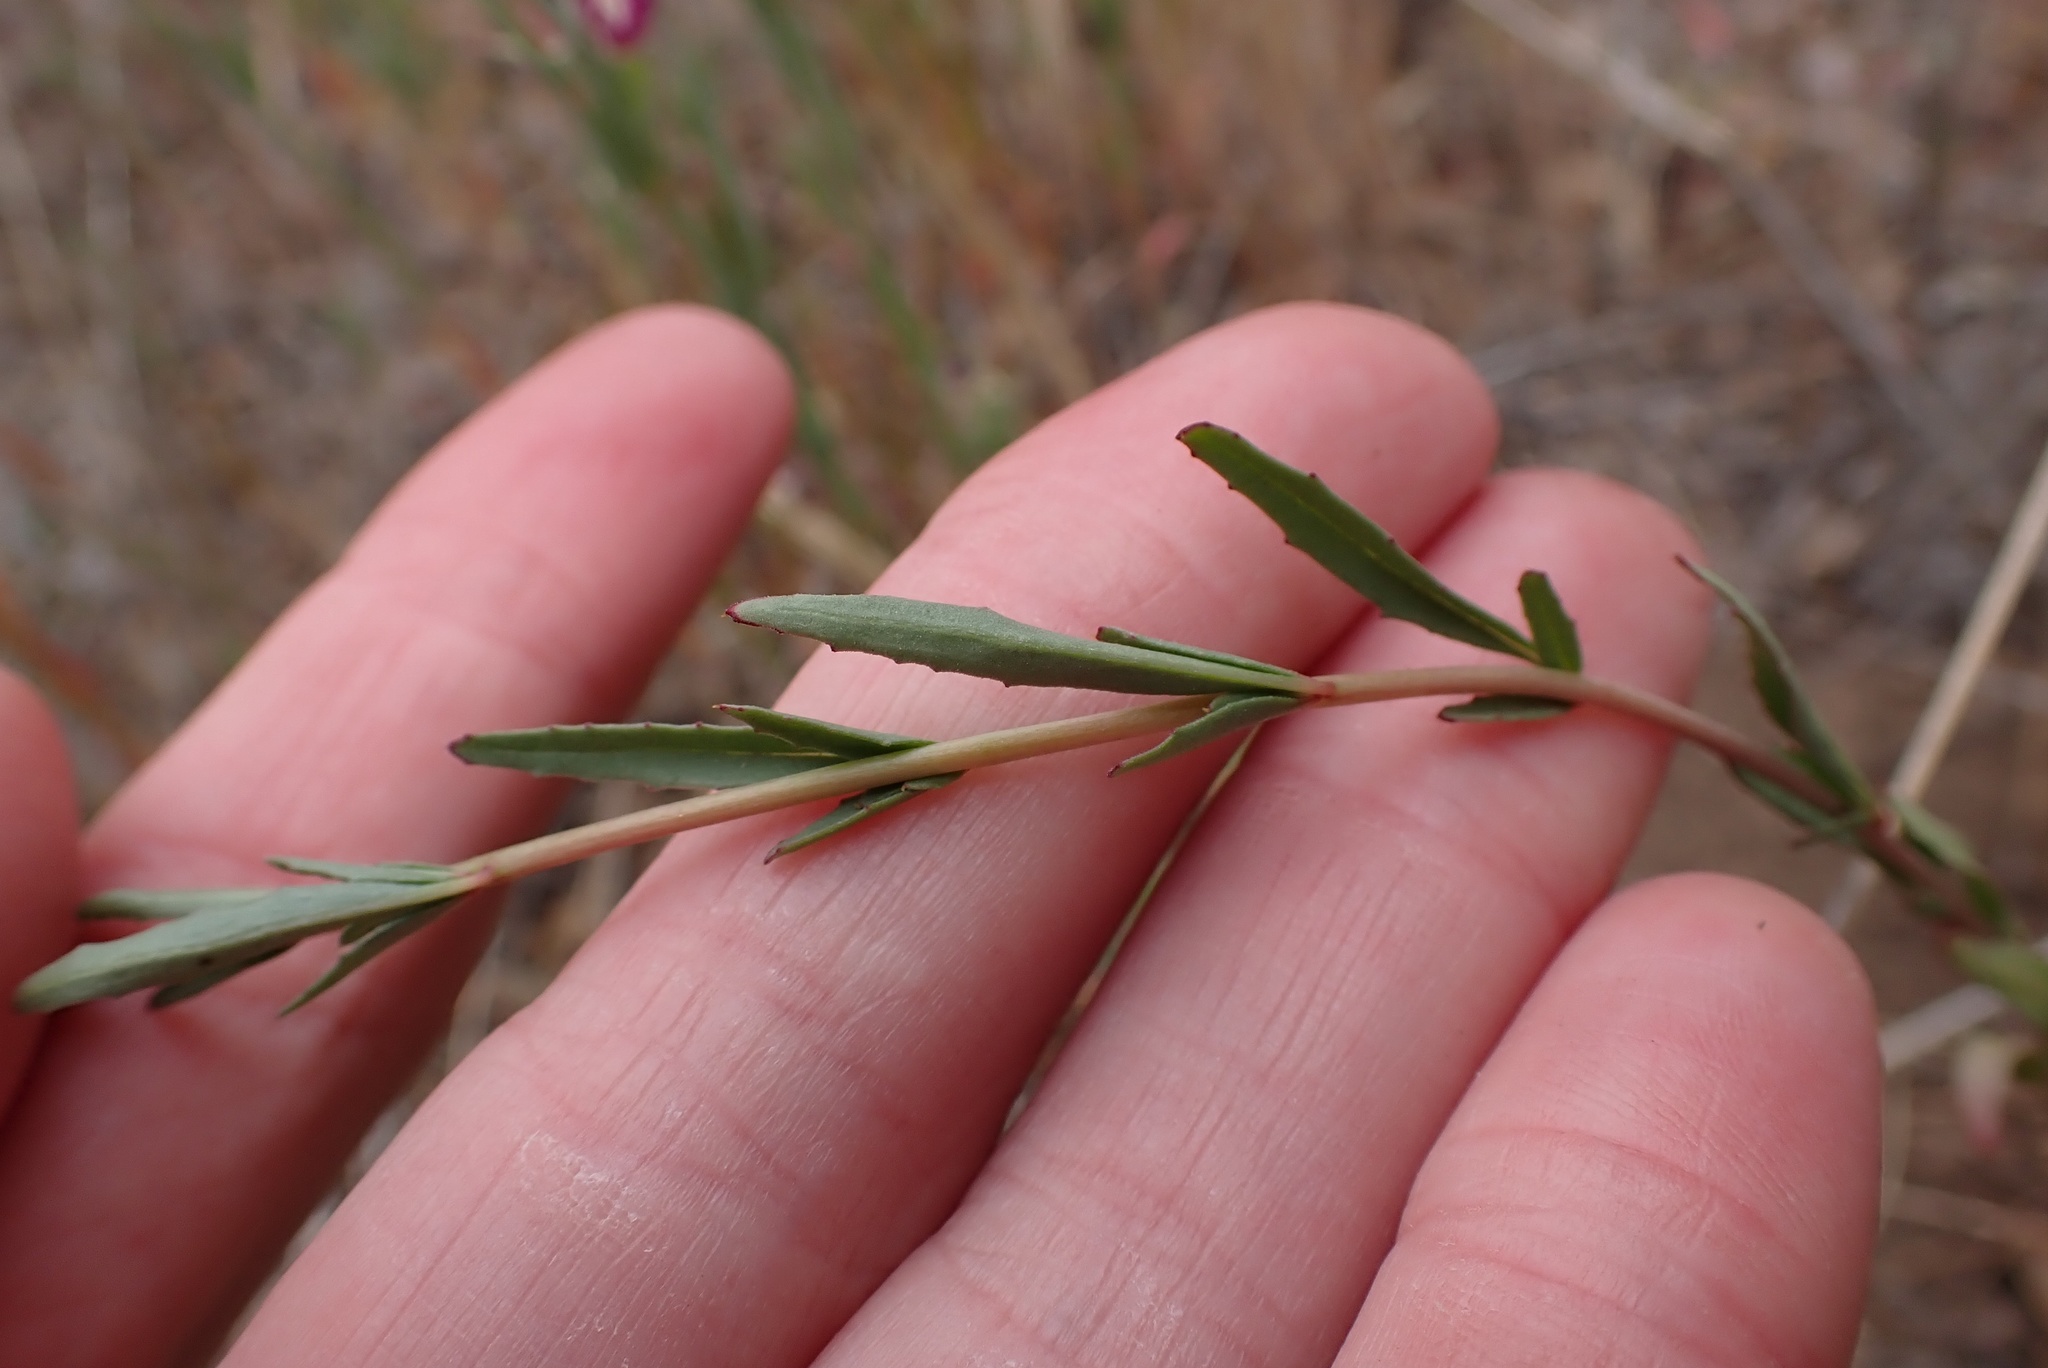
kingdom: Plantae
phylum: Tracheophyta
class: Magnoliopsida
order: Myrtales
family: Onagraceae
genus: Clarkia
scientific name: Clarkia delicata
